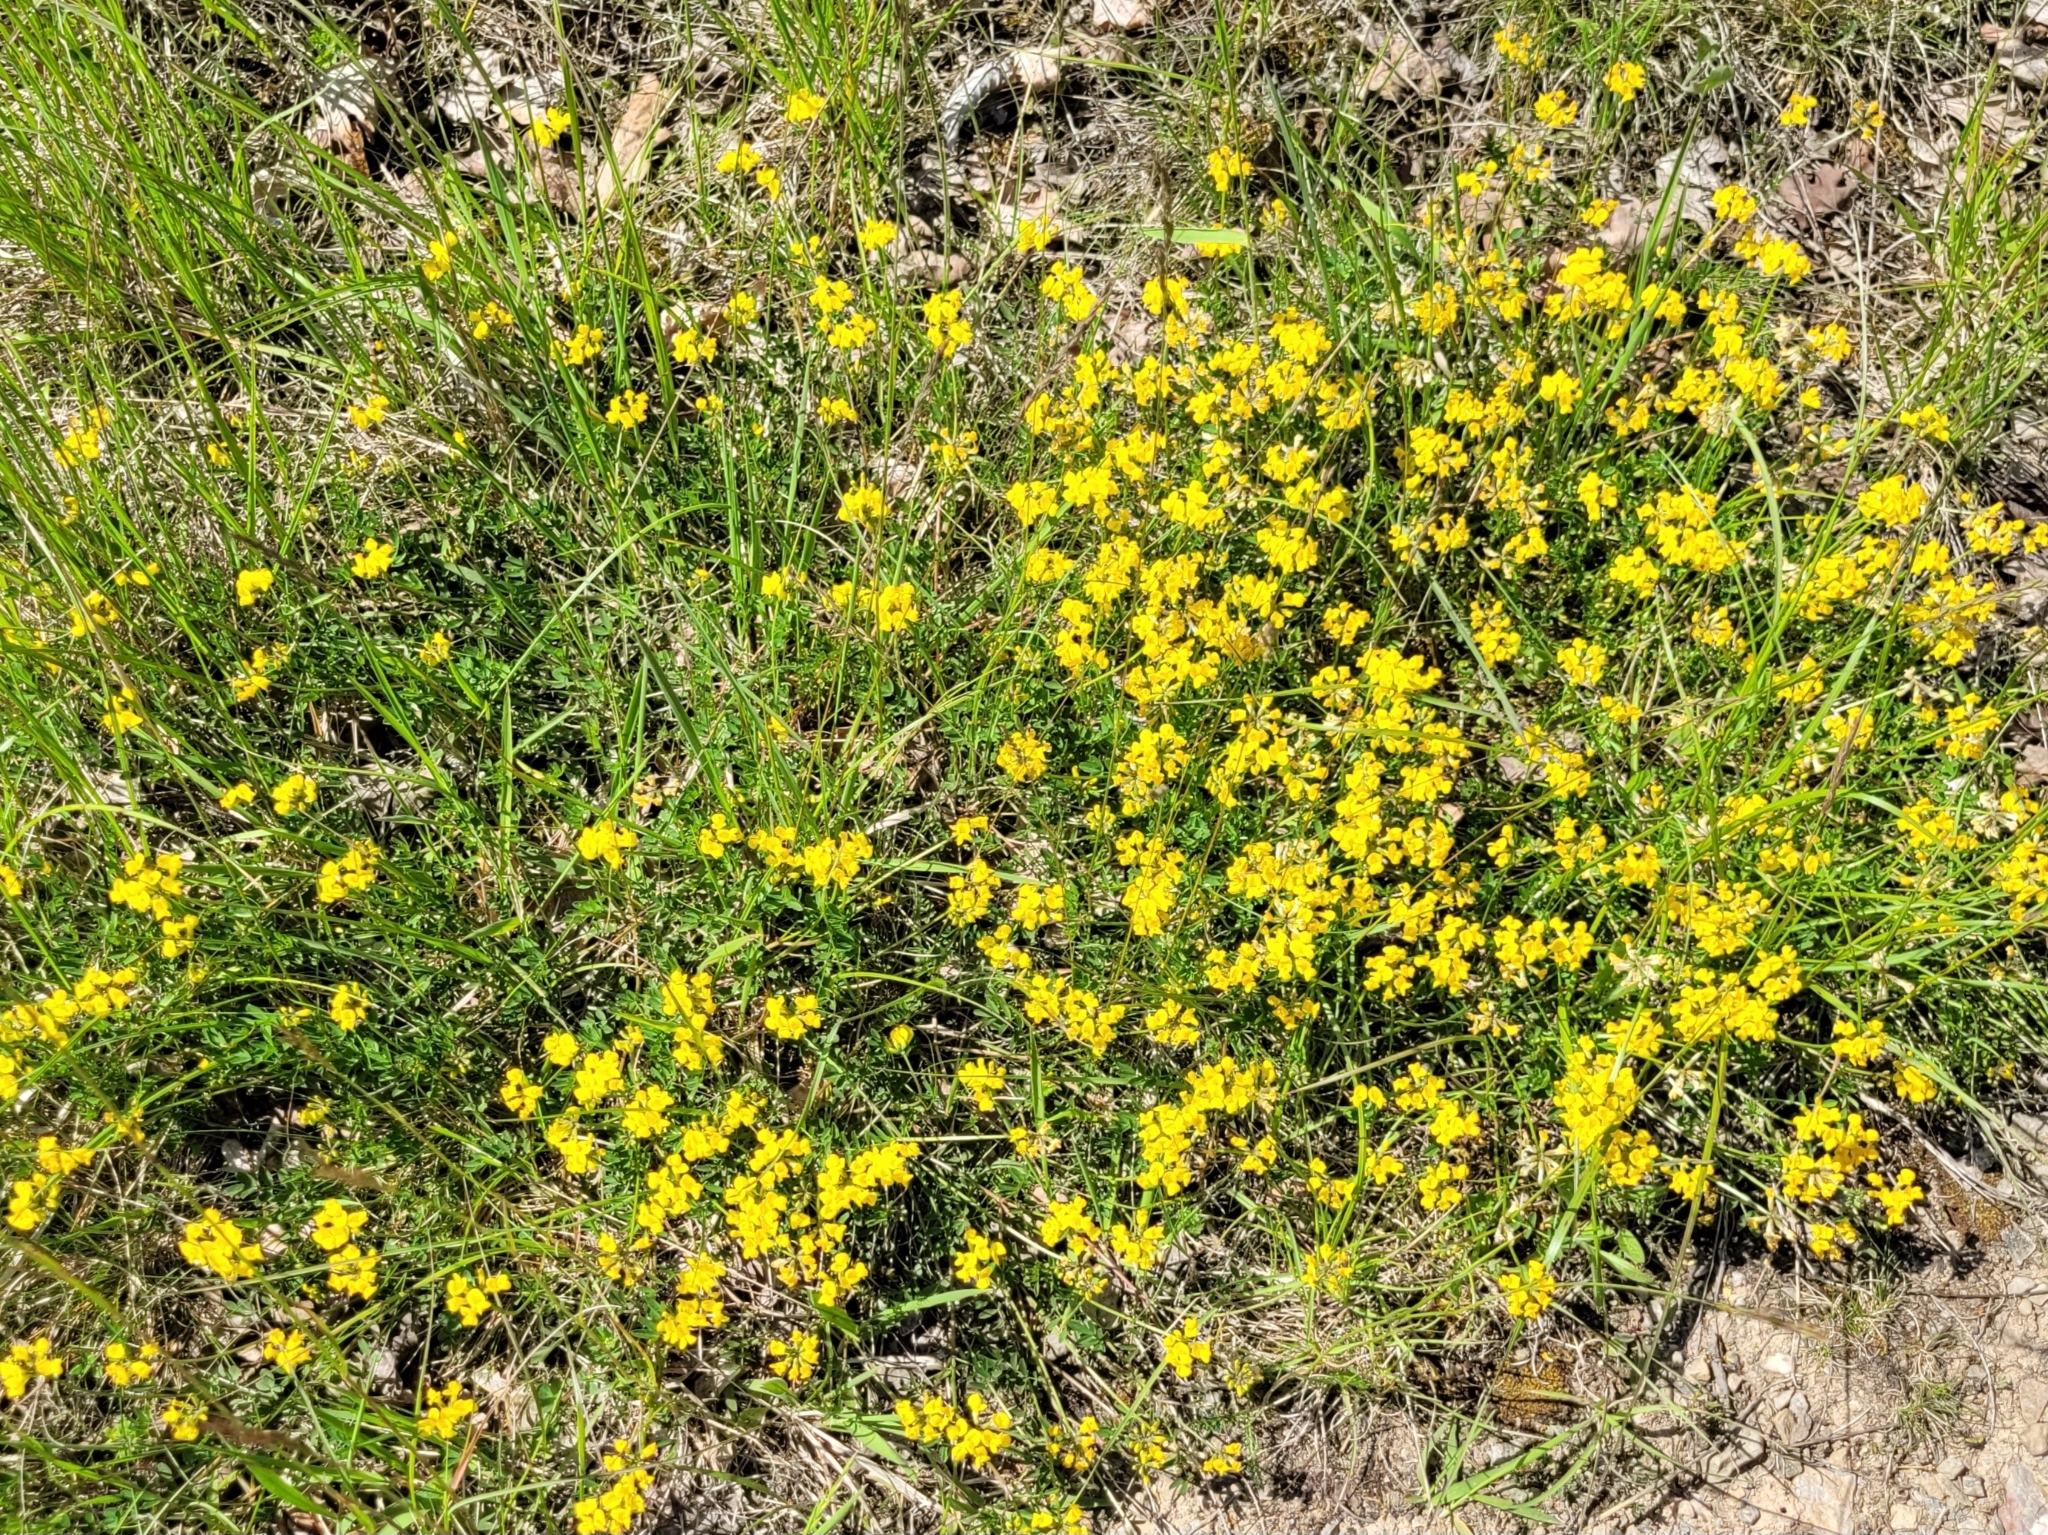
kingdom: Plantae
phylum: Tracheophyta
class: Magnoliopsida
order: Fabales
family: Fabaceae
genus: Hippocrepis
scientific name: Hippocrepis comosa
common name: Horseshoe vetch
